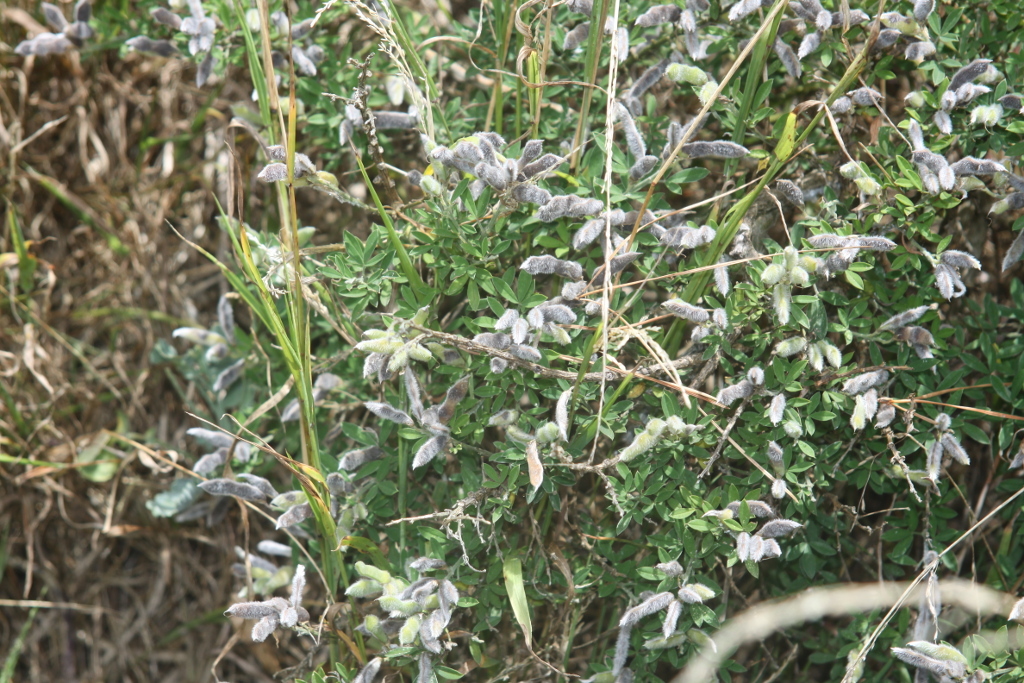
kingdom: Plantae
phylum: Tracheophyta
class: Magnoliopsida
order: Fabales
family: Fabaceae
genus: Genista
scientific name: Genista monspessulana
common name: Montpellier broom
